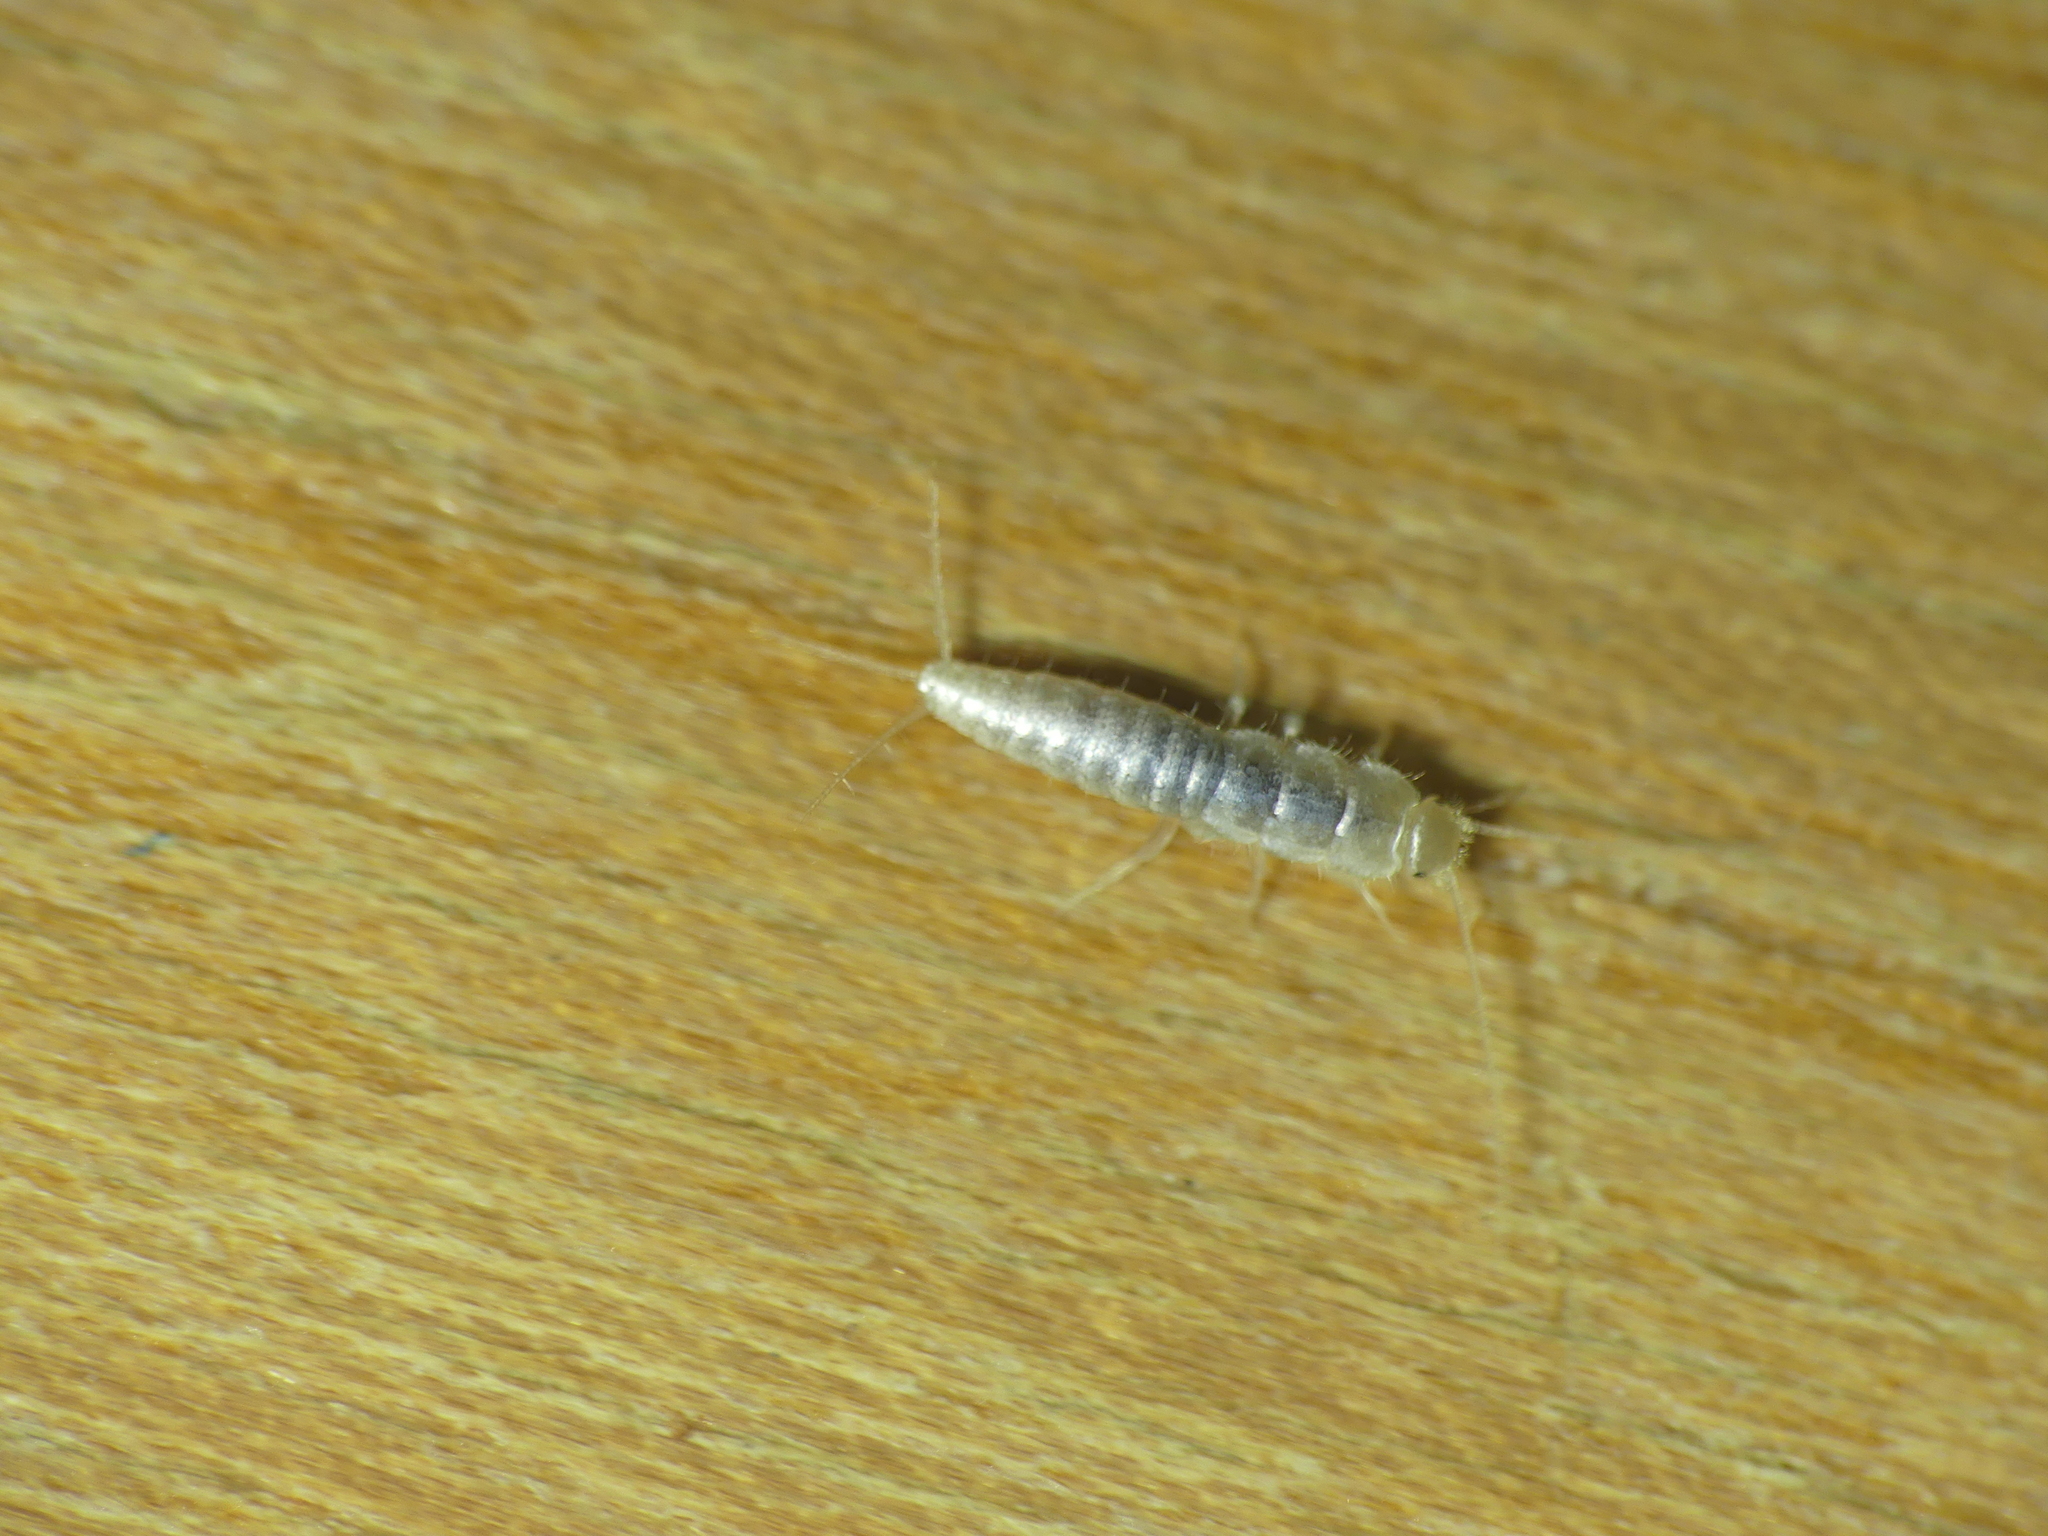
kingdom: Animalia
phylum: Arthropoda
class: Insecta
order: Zygentoma
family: Lepismatidae
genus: Ctenolepisma
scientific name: Ctenolepisma calvum
